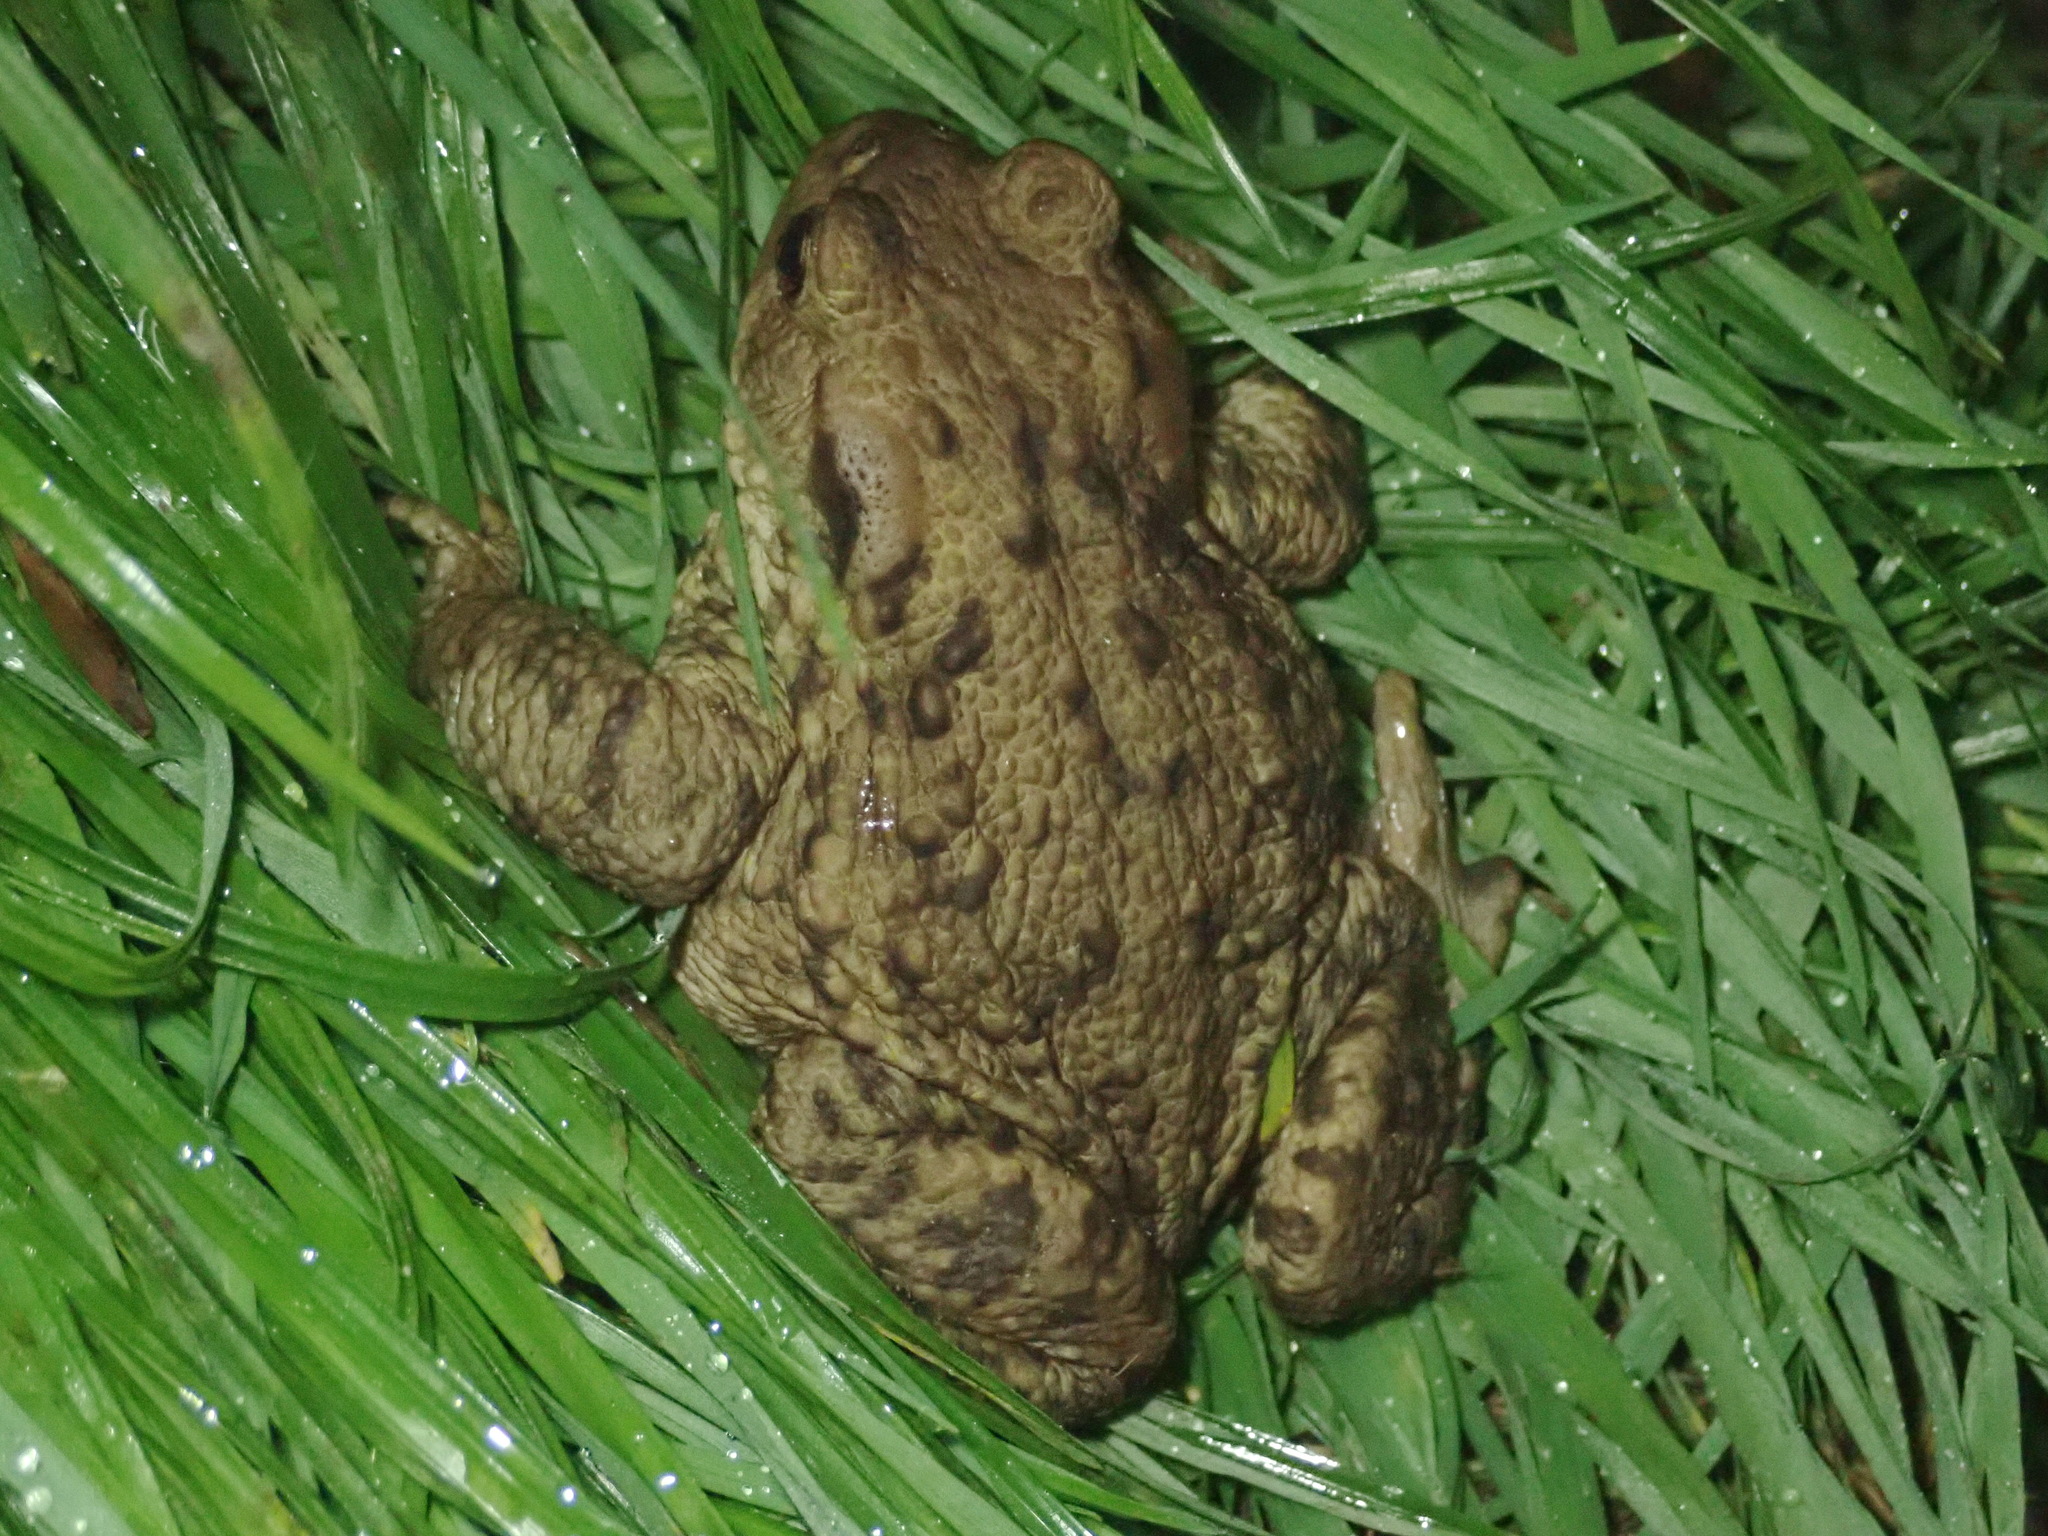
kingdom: Animalia
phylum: Chordata
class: Amphibia
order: Anura
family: Bufonidae
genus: Bufo
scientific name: Bufo bufo
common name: Common toad
